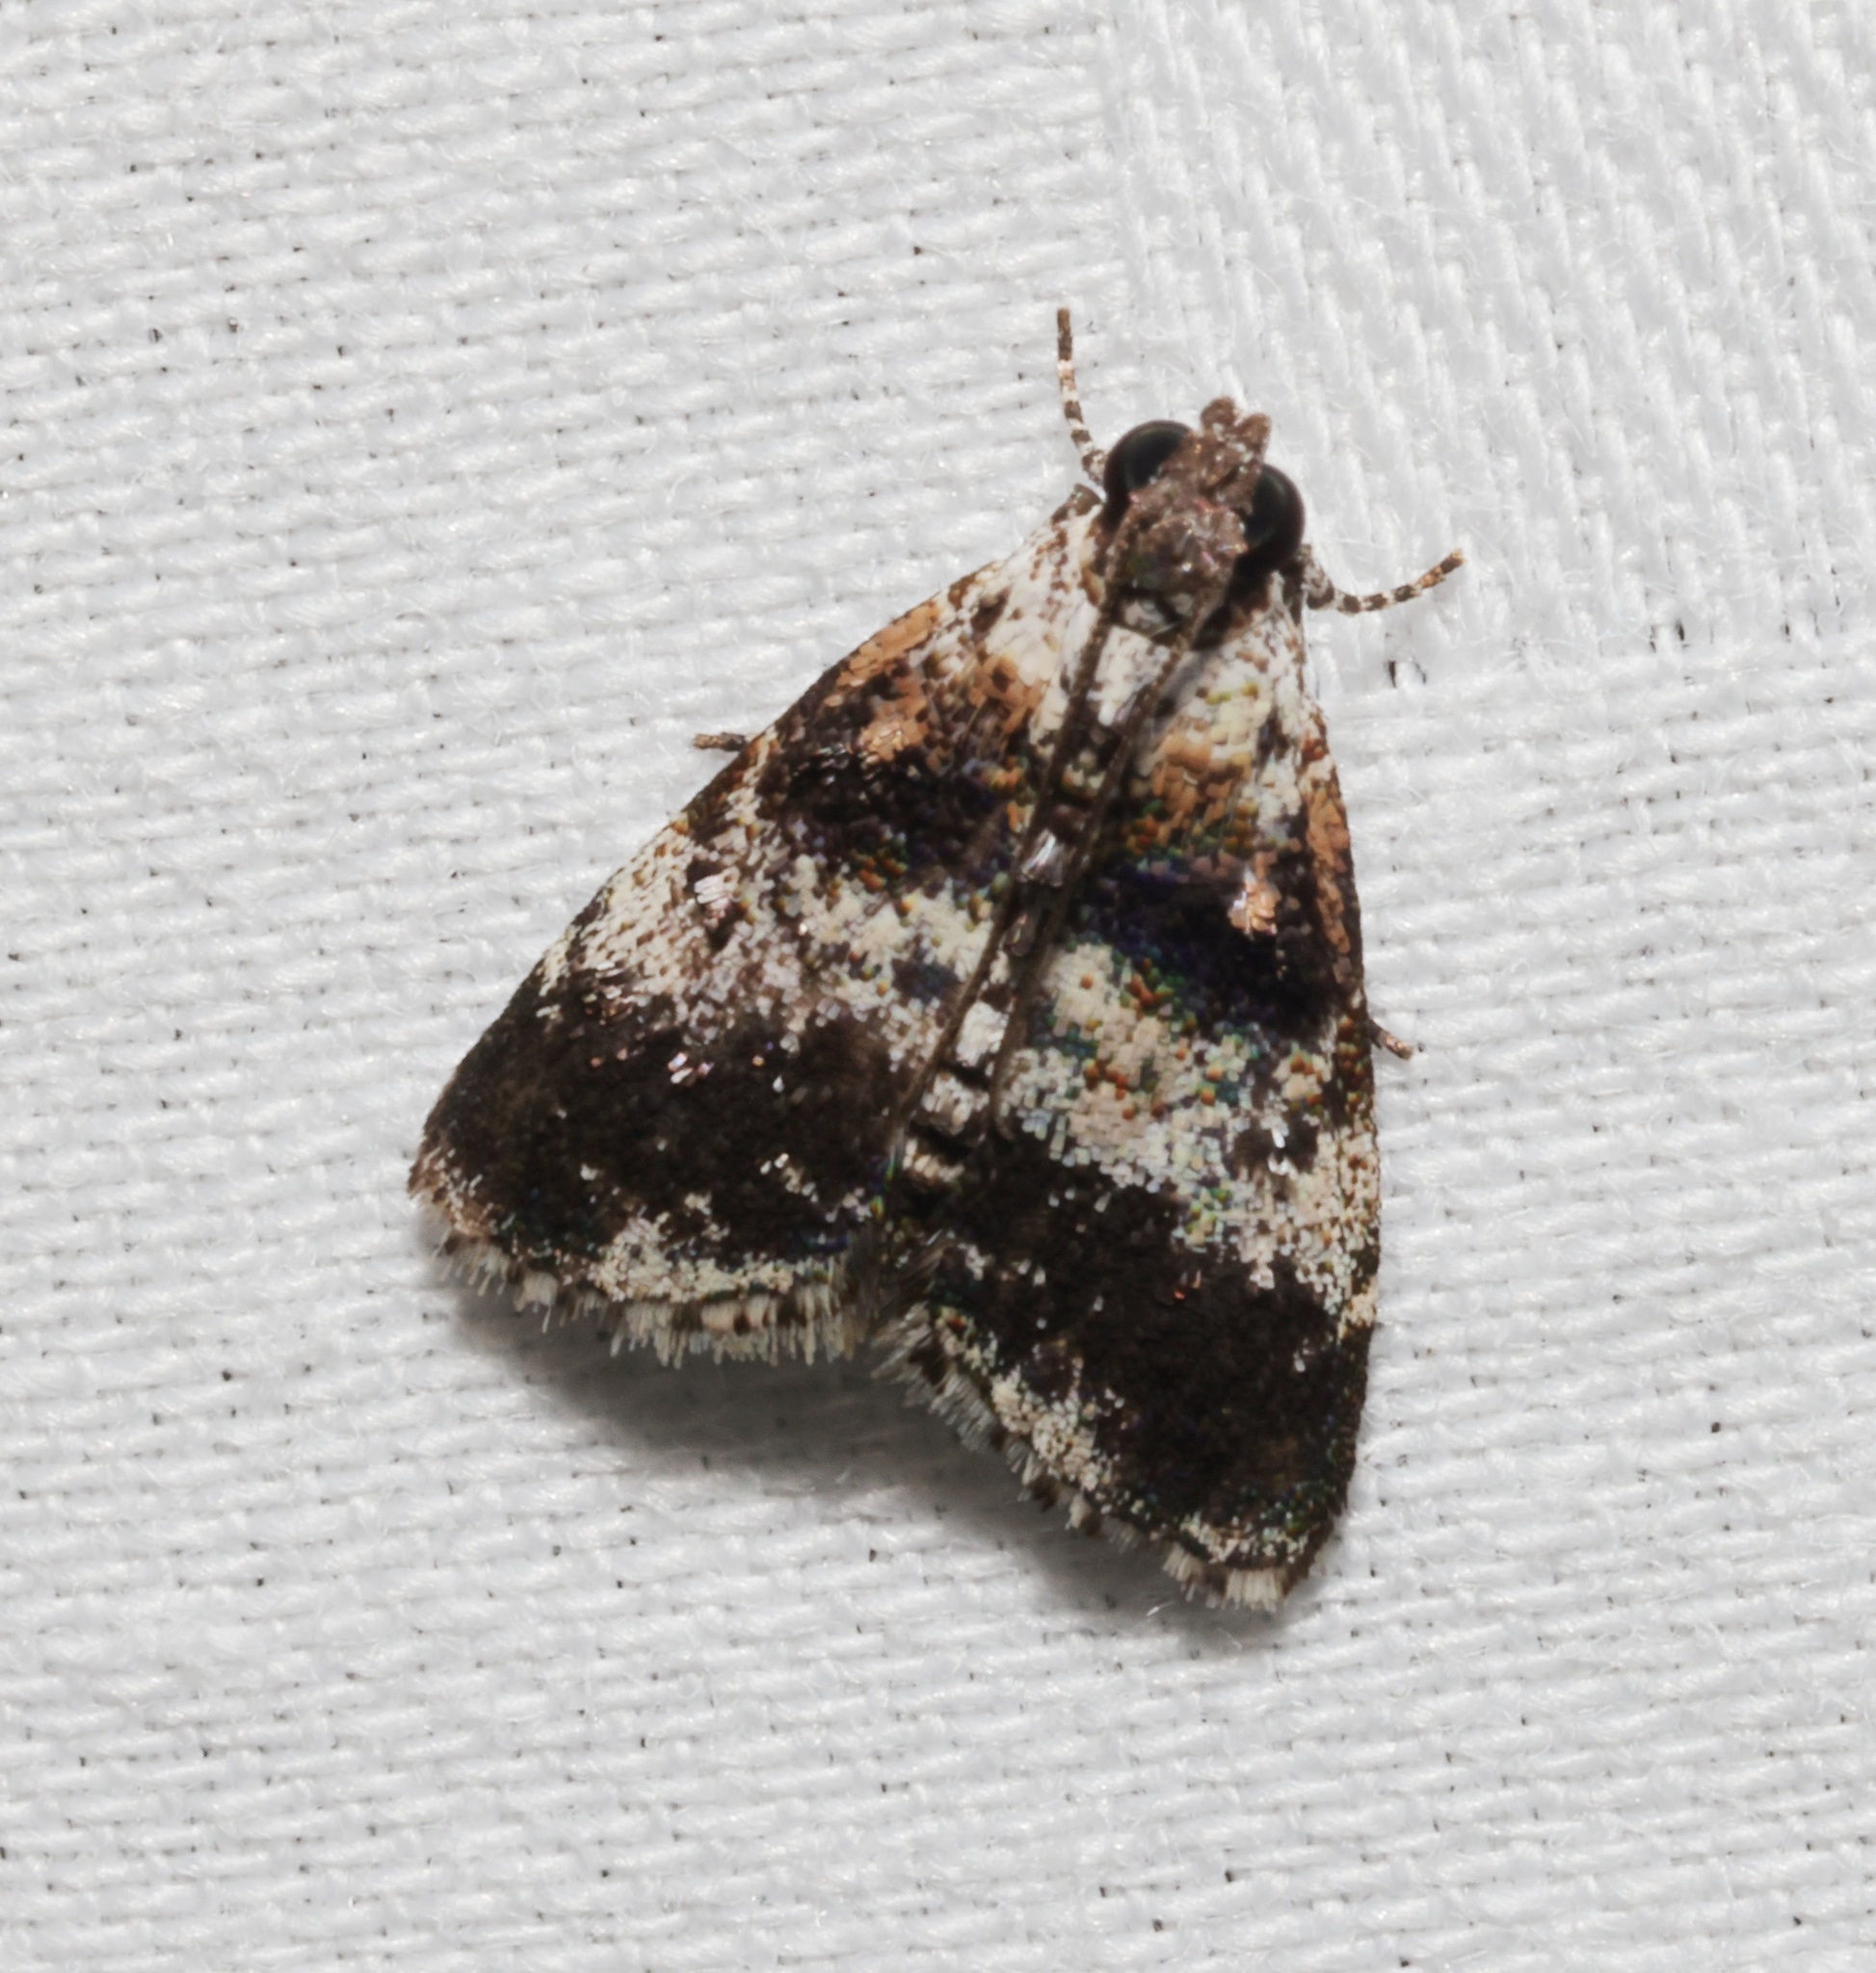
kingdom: Animalia
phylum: Arthropoda
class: Insecta
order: Lepidoptera
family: Pyralidae
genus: Salma
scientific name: Salma
